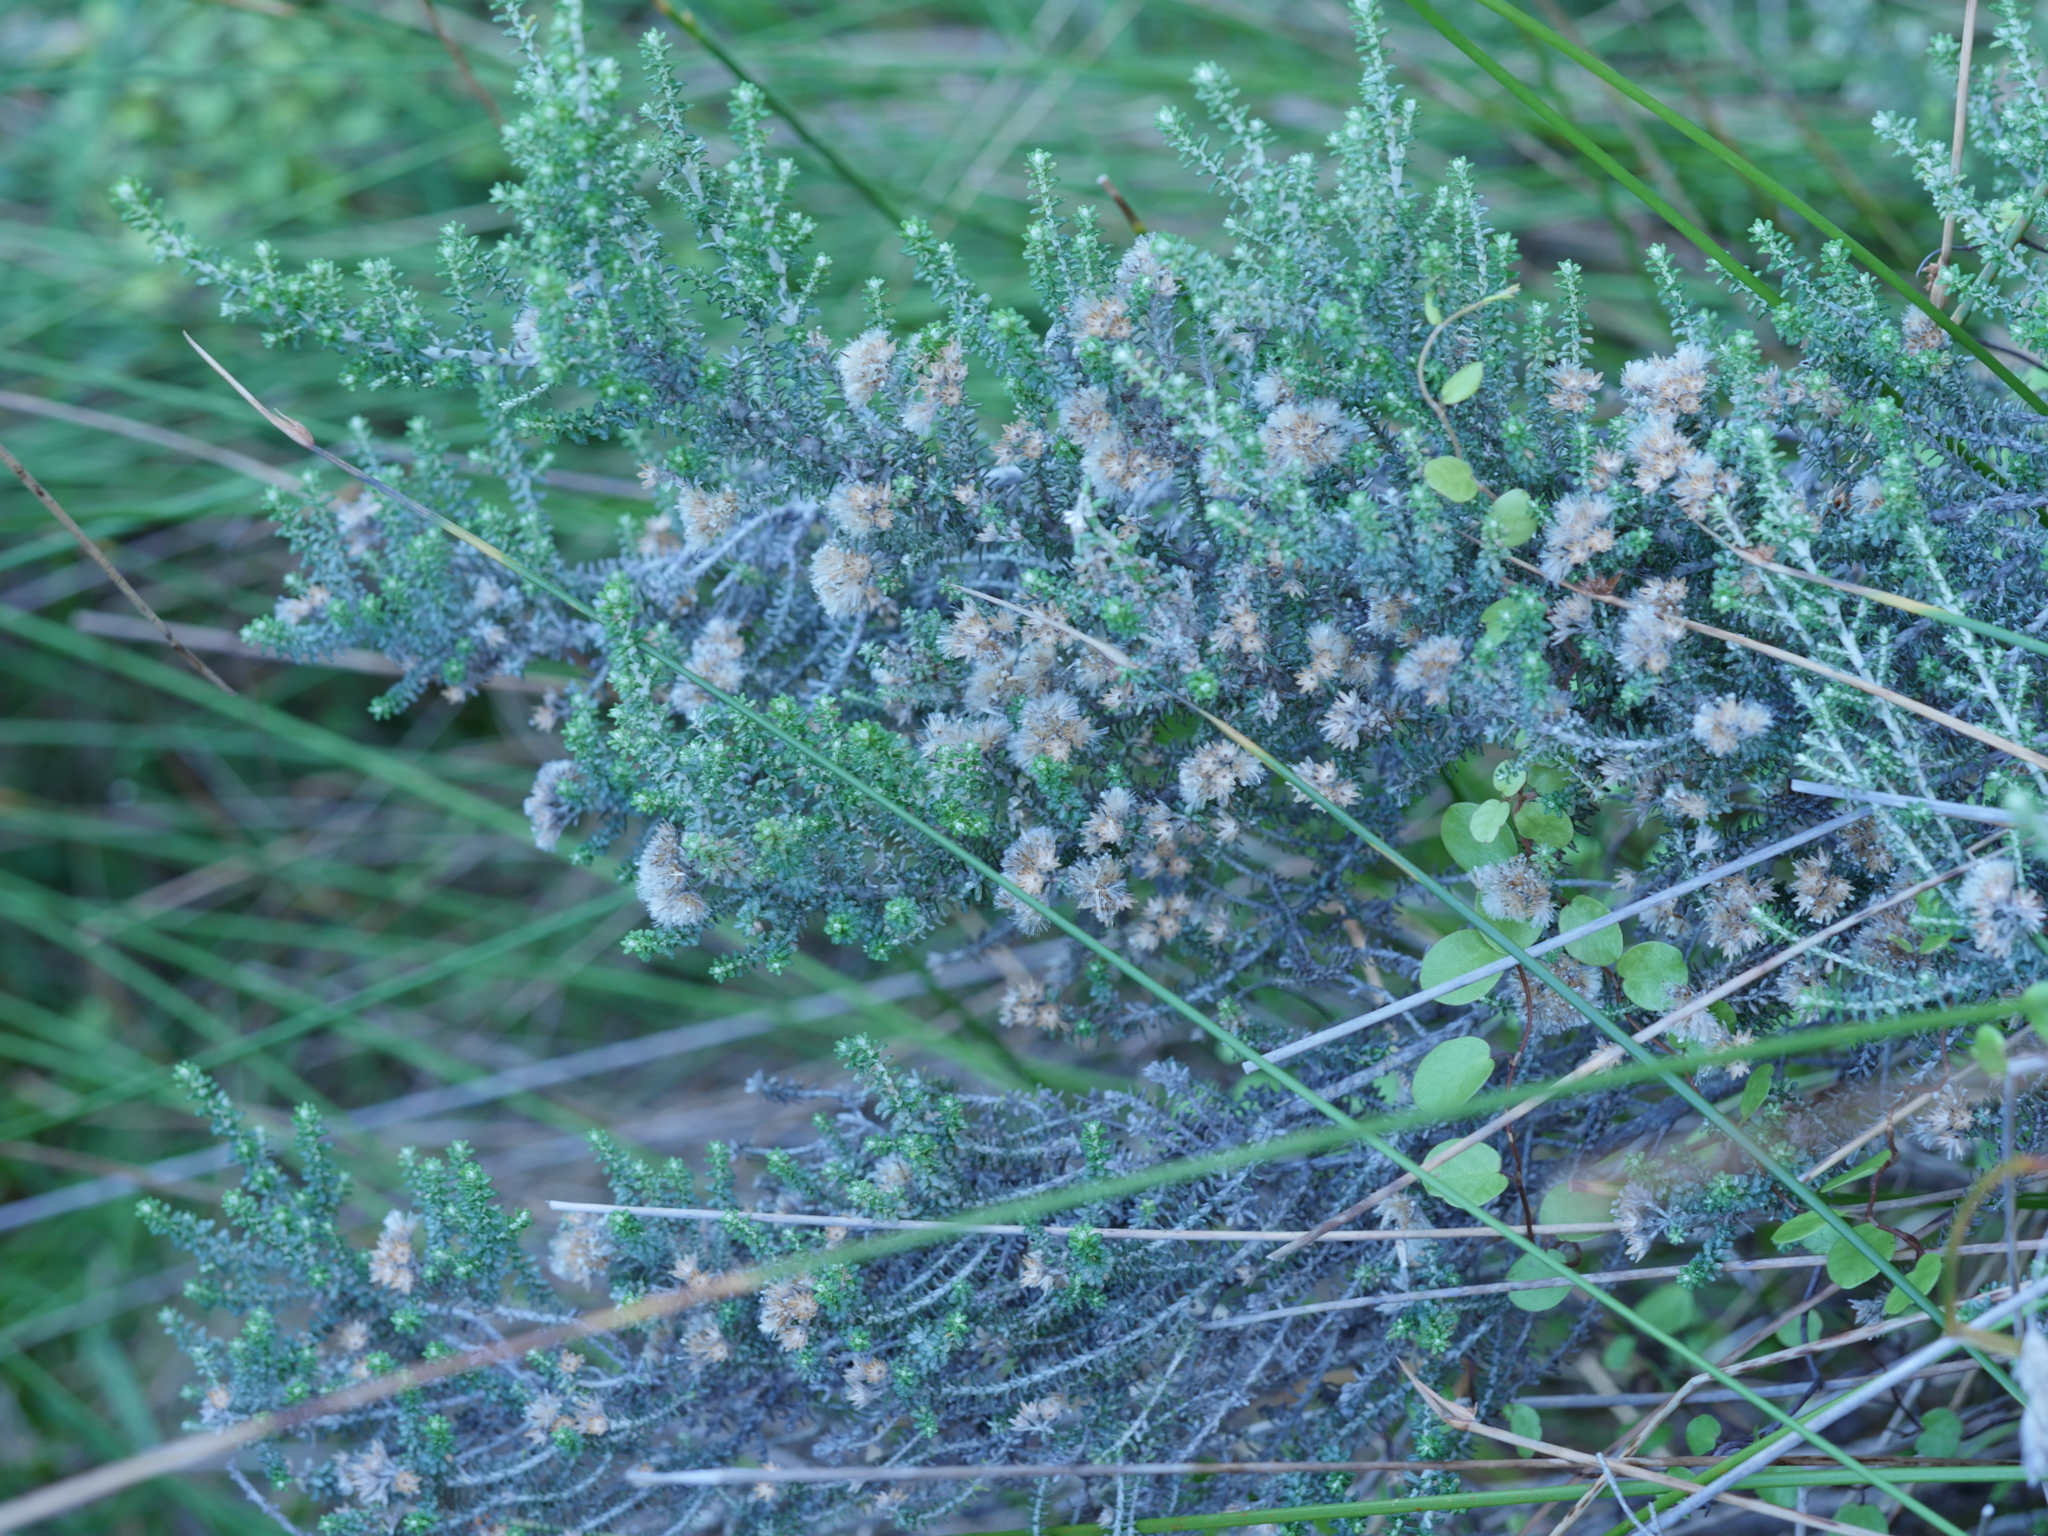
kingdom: Plantae
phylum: Tracheophyta
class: Magnoliopsida
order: Asterales
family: Asteraceae
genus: Ozothamnus
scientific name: Ozothamnus leptophyllus
